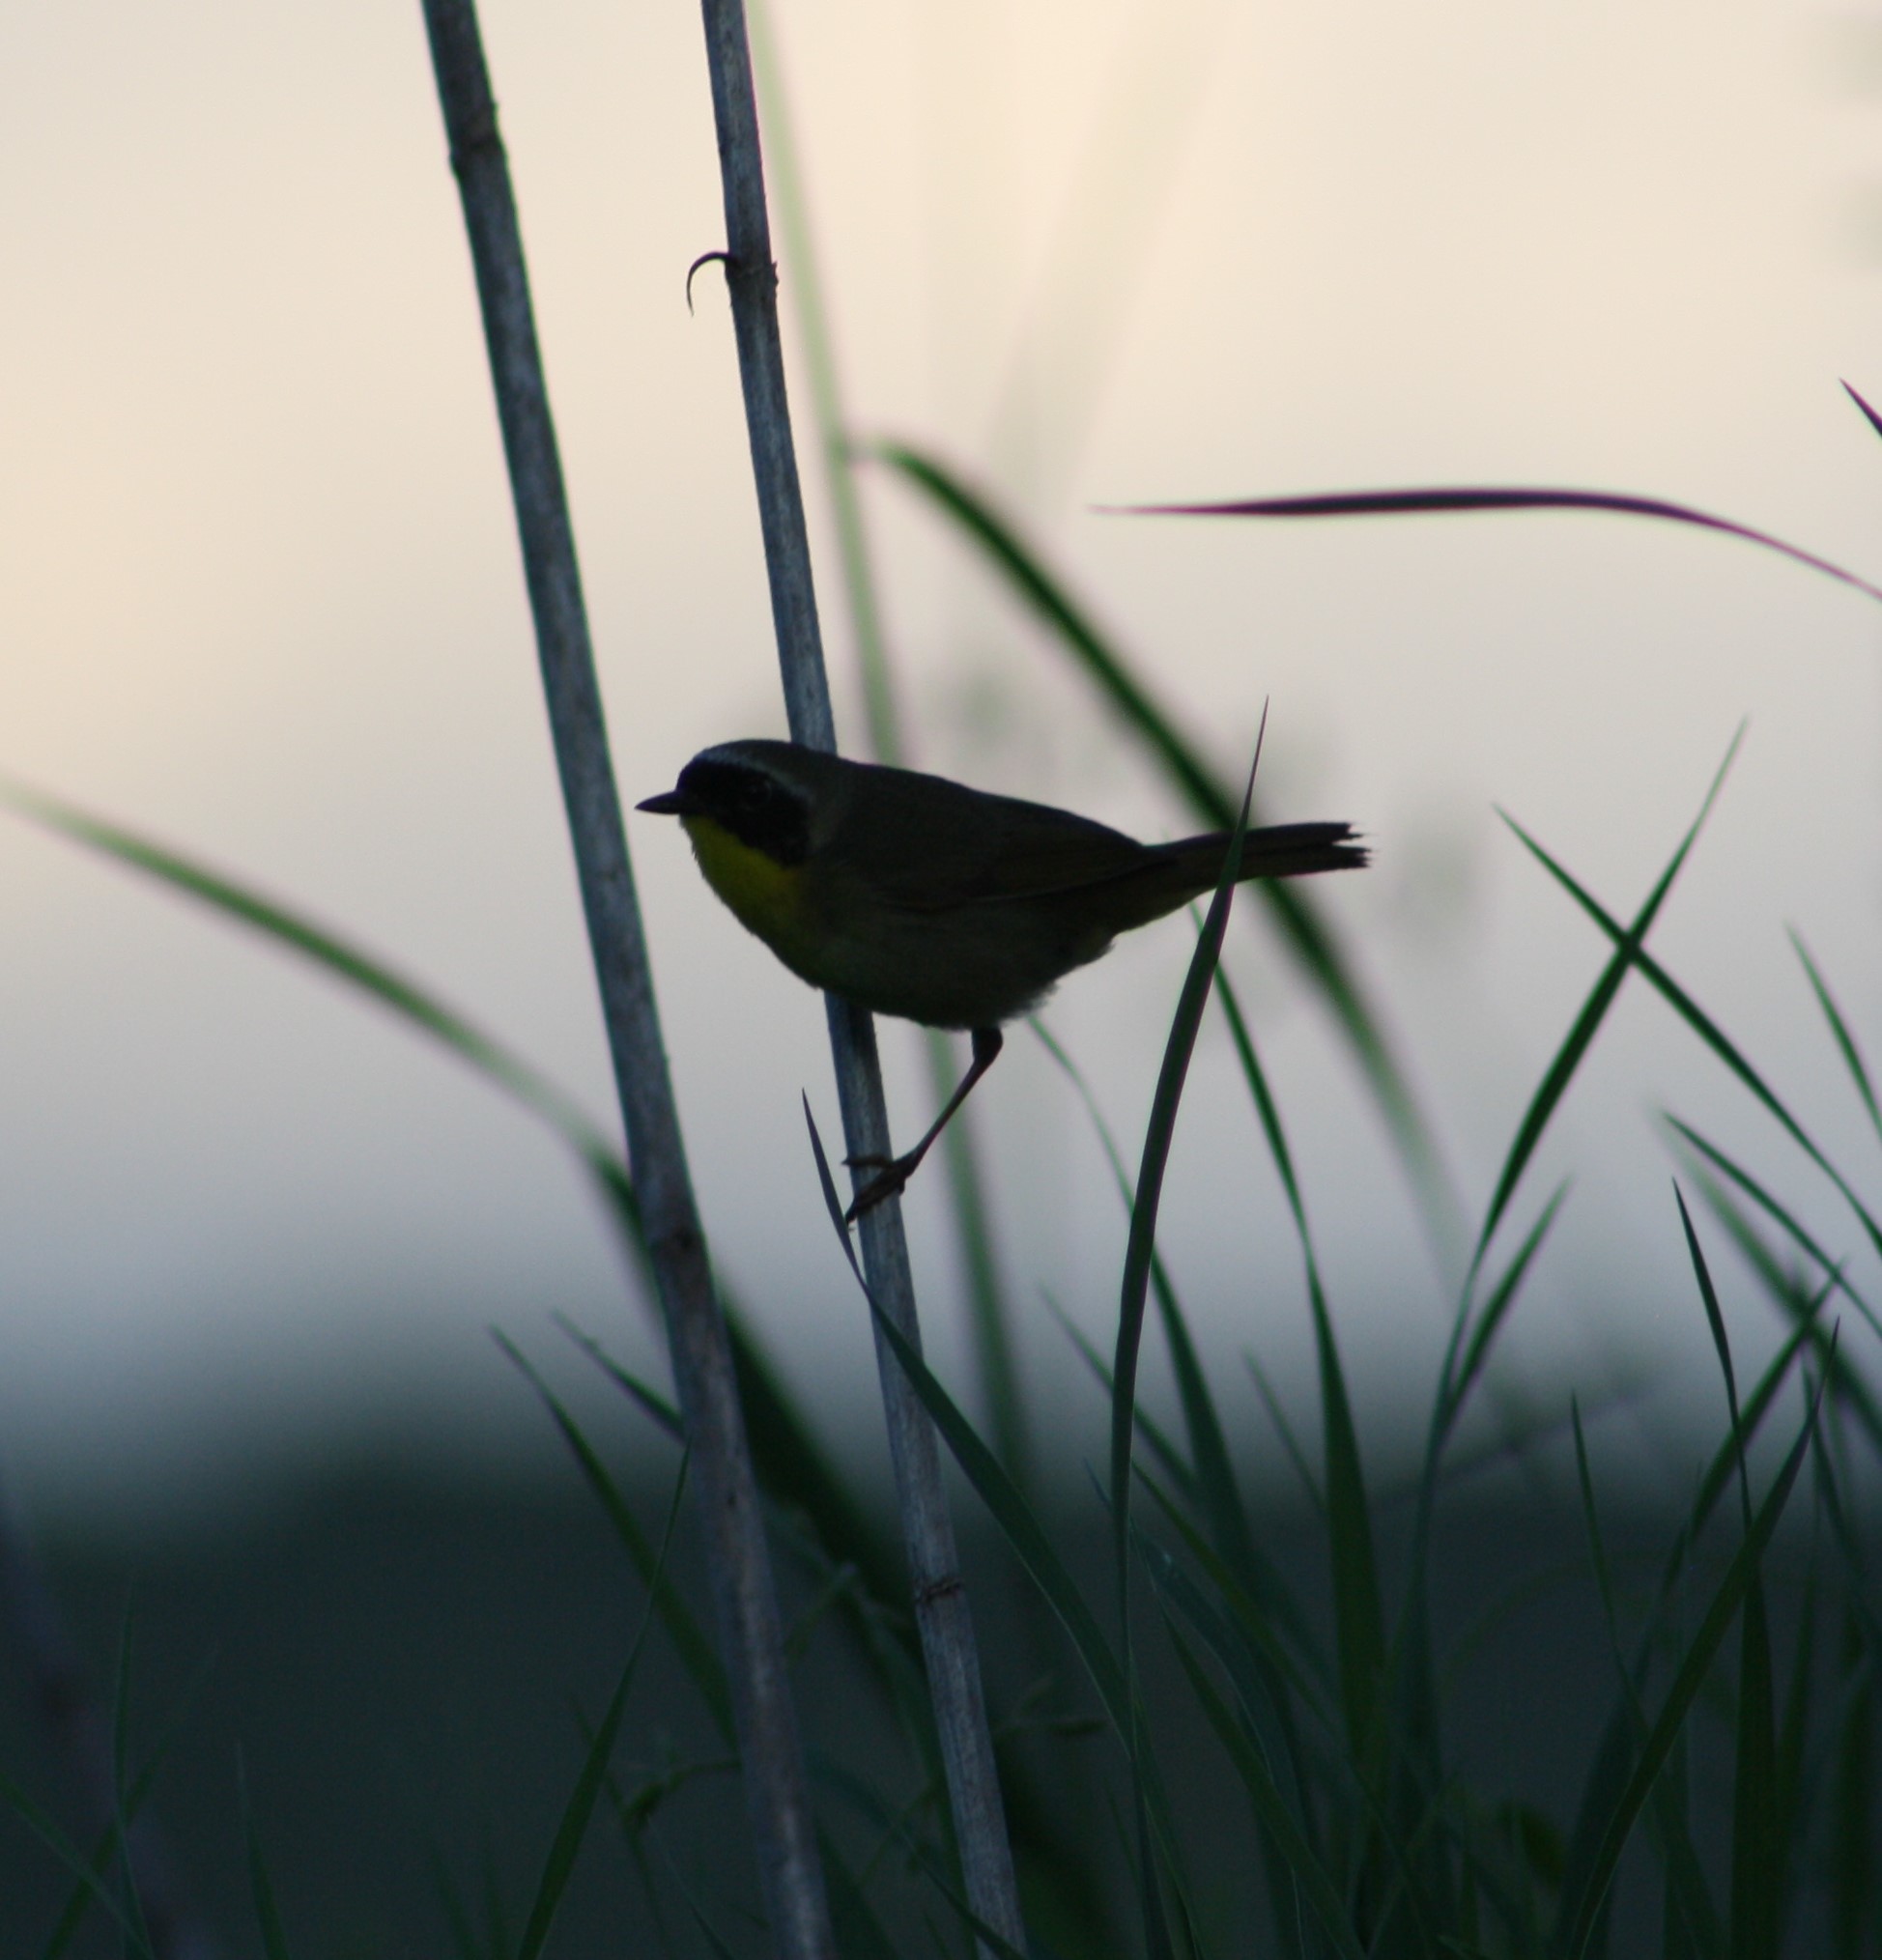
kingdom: Animalia
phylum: Chordata
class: Aves
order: Passeriformes
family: Parulidae
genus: Geothlypis
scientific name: Geothlypis trichas
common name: Common yellowthroat
